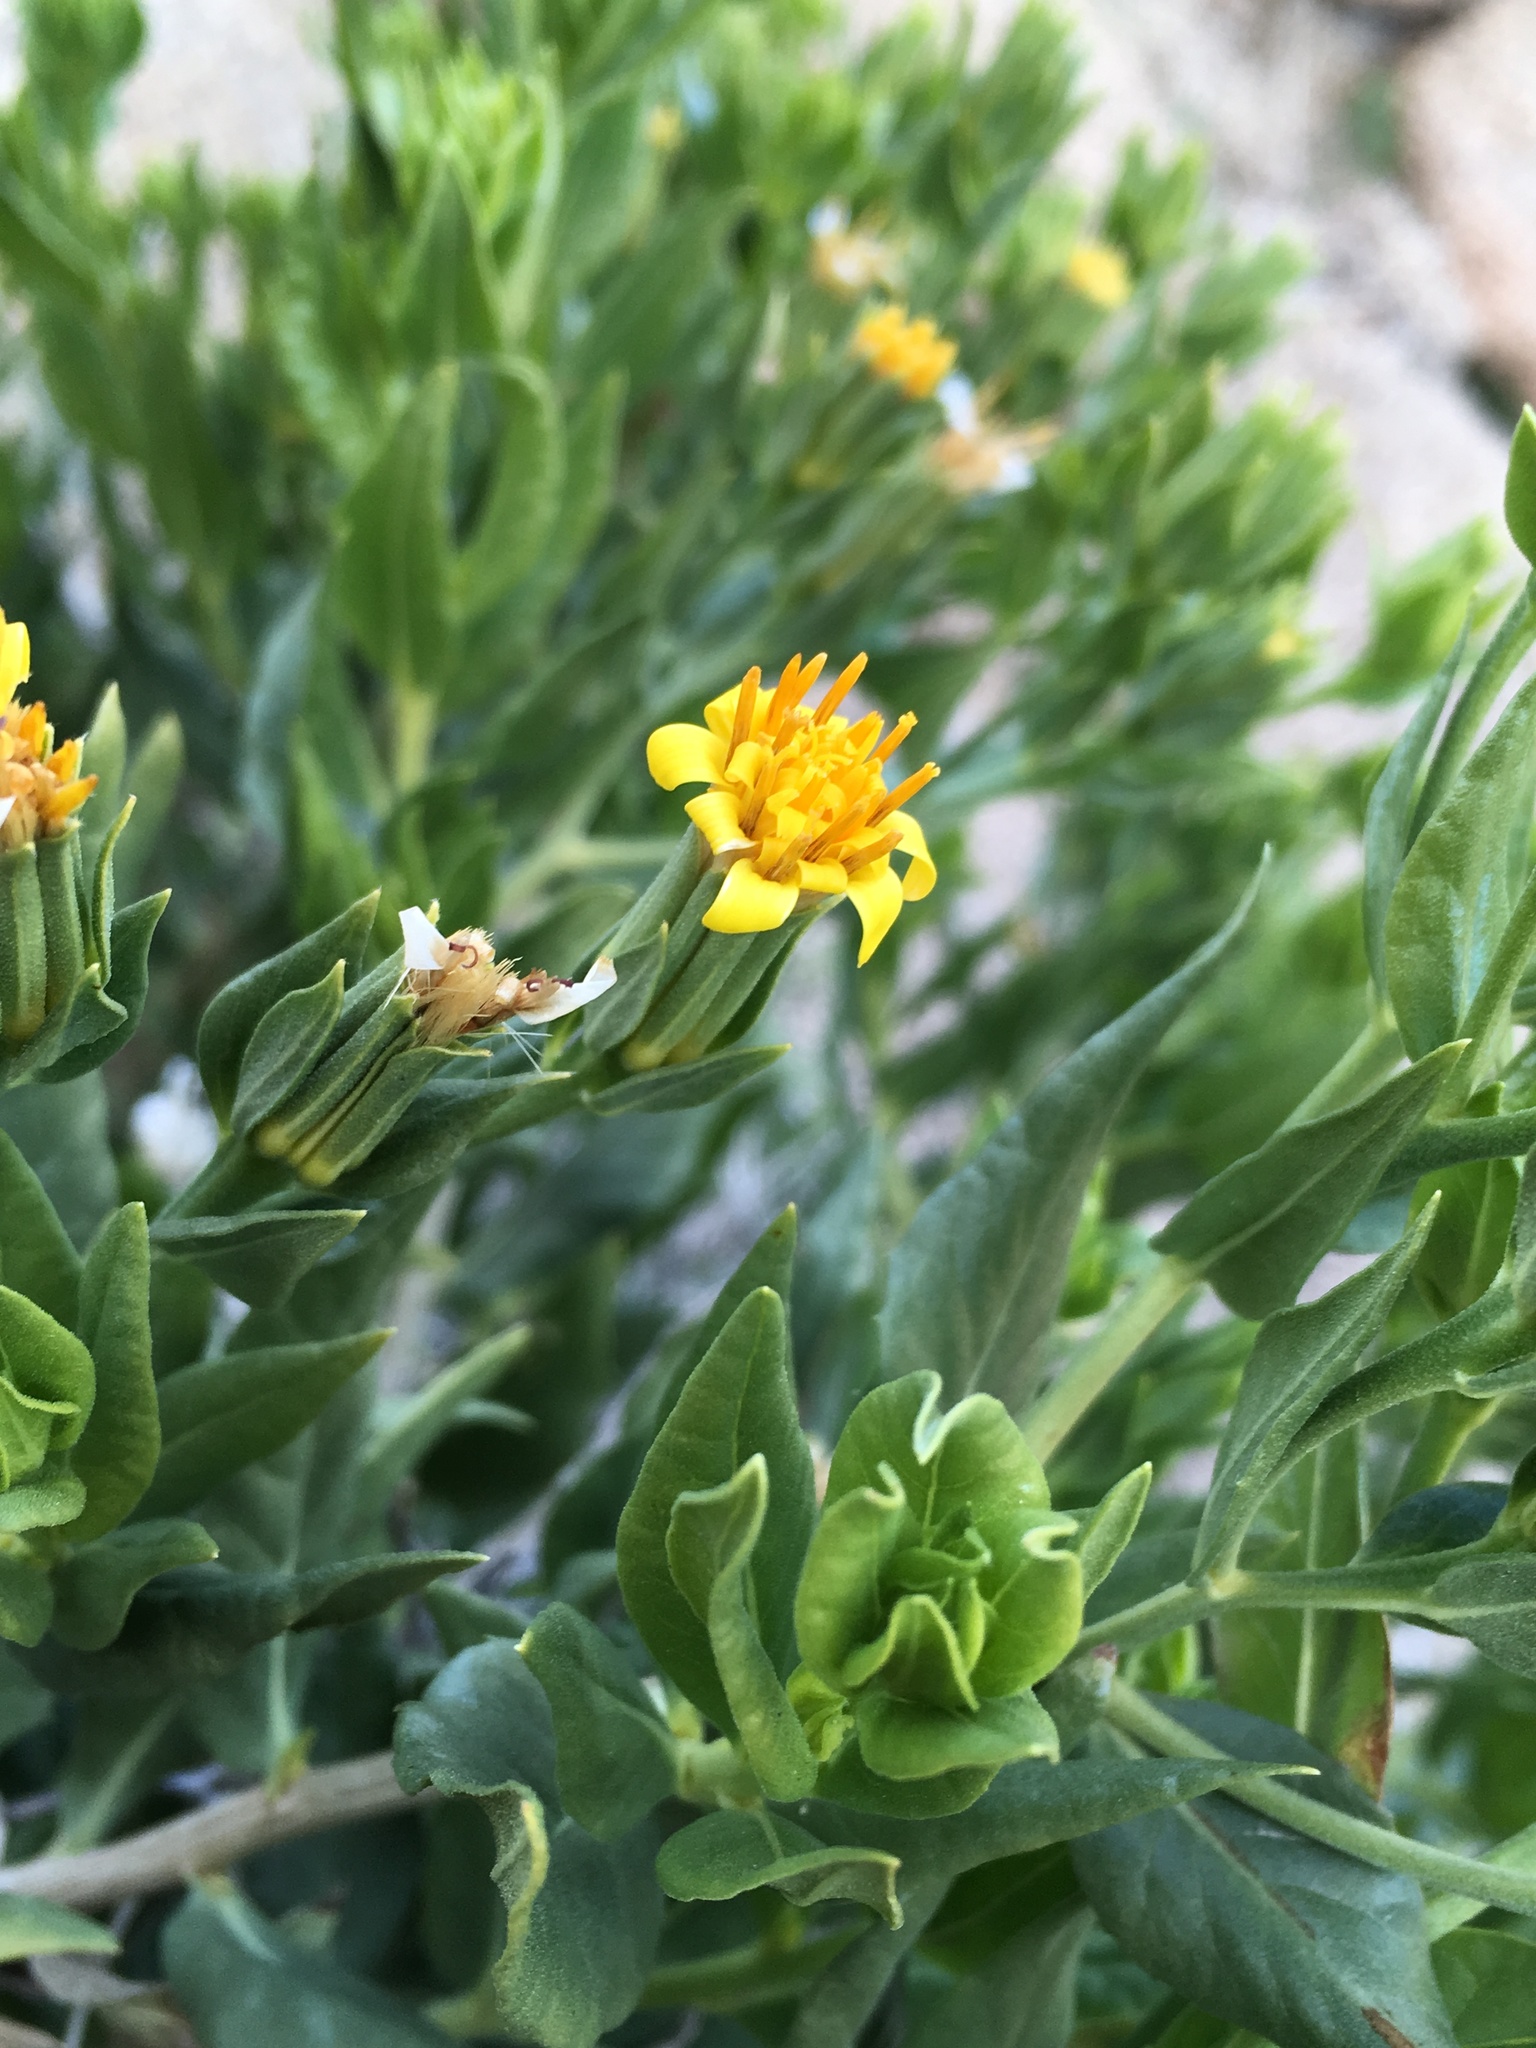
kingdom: Plantae
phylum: Tracheophyta
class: Magnoliopsida
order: Asterales
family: Asteraceae
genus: Trixis
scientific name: Trixis californica
